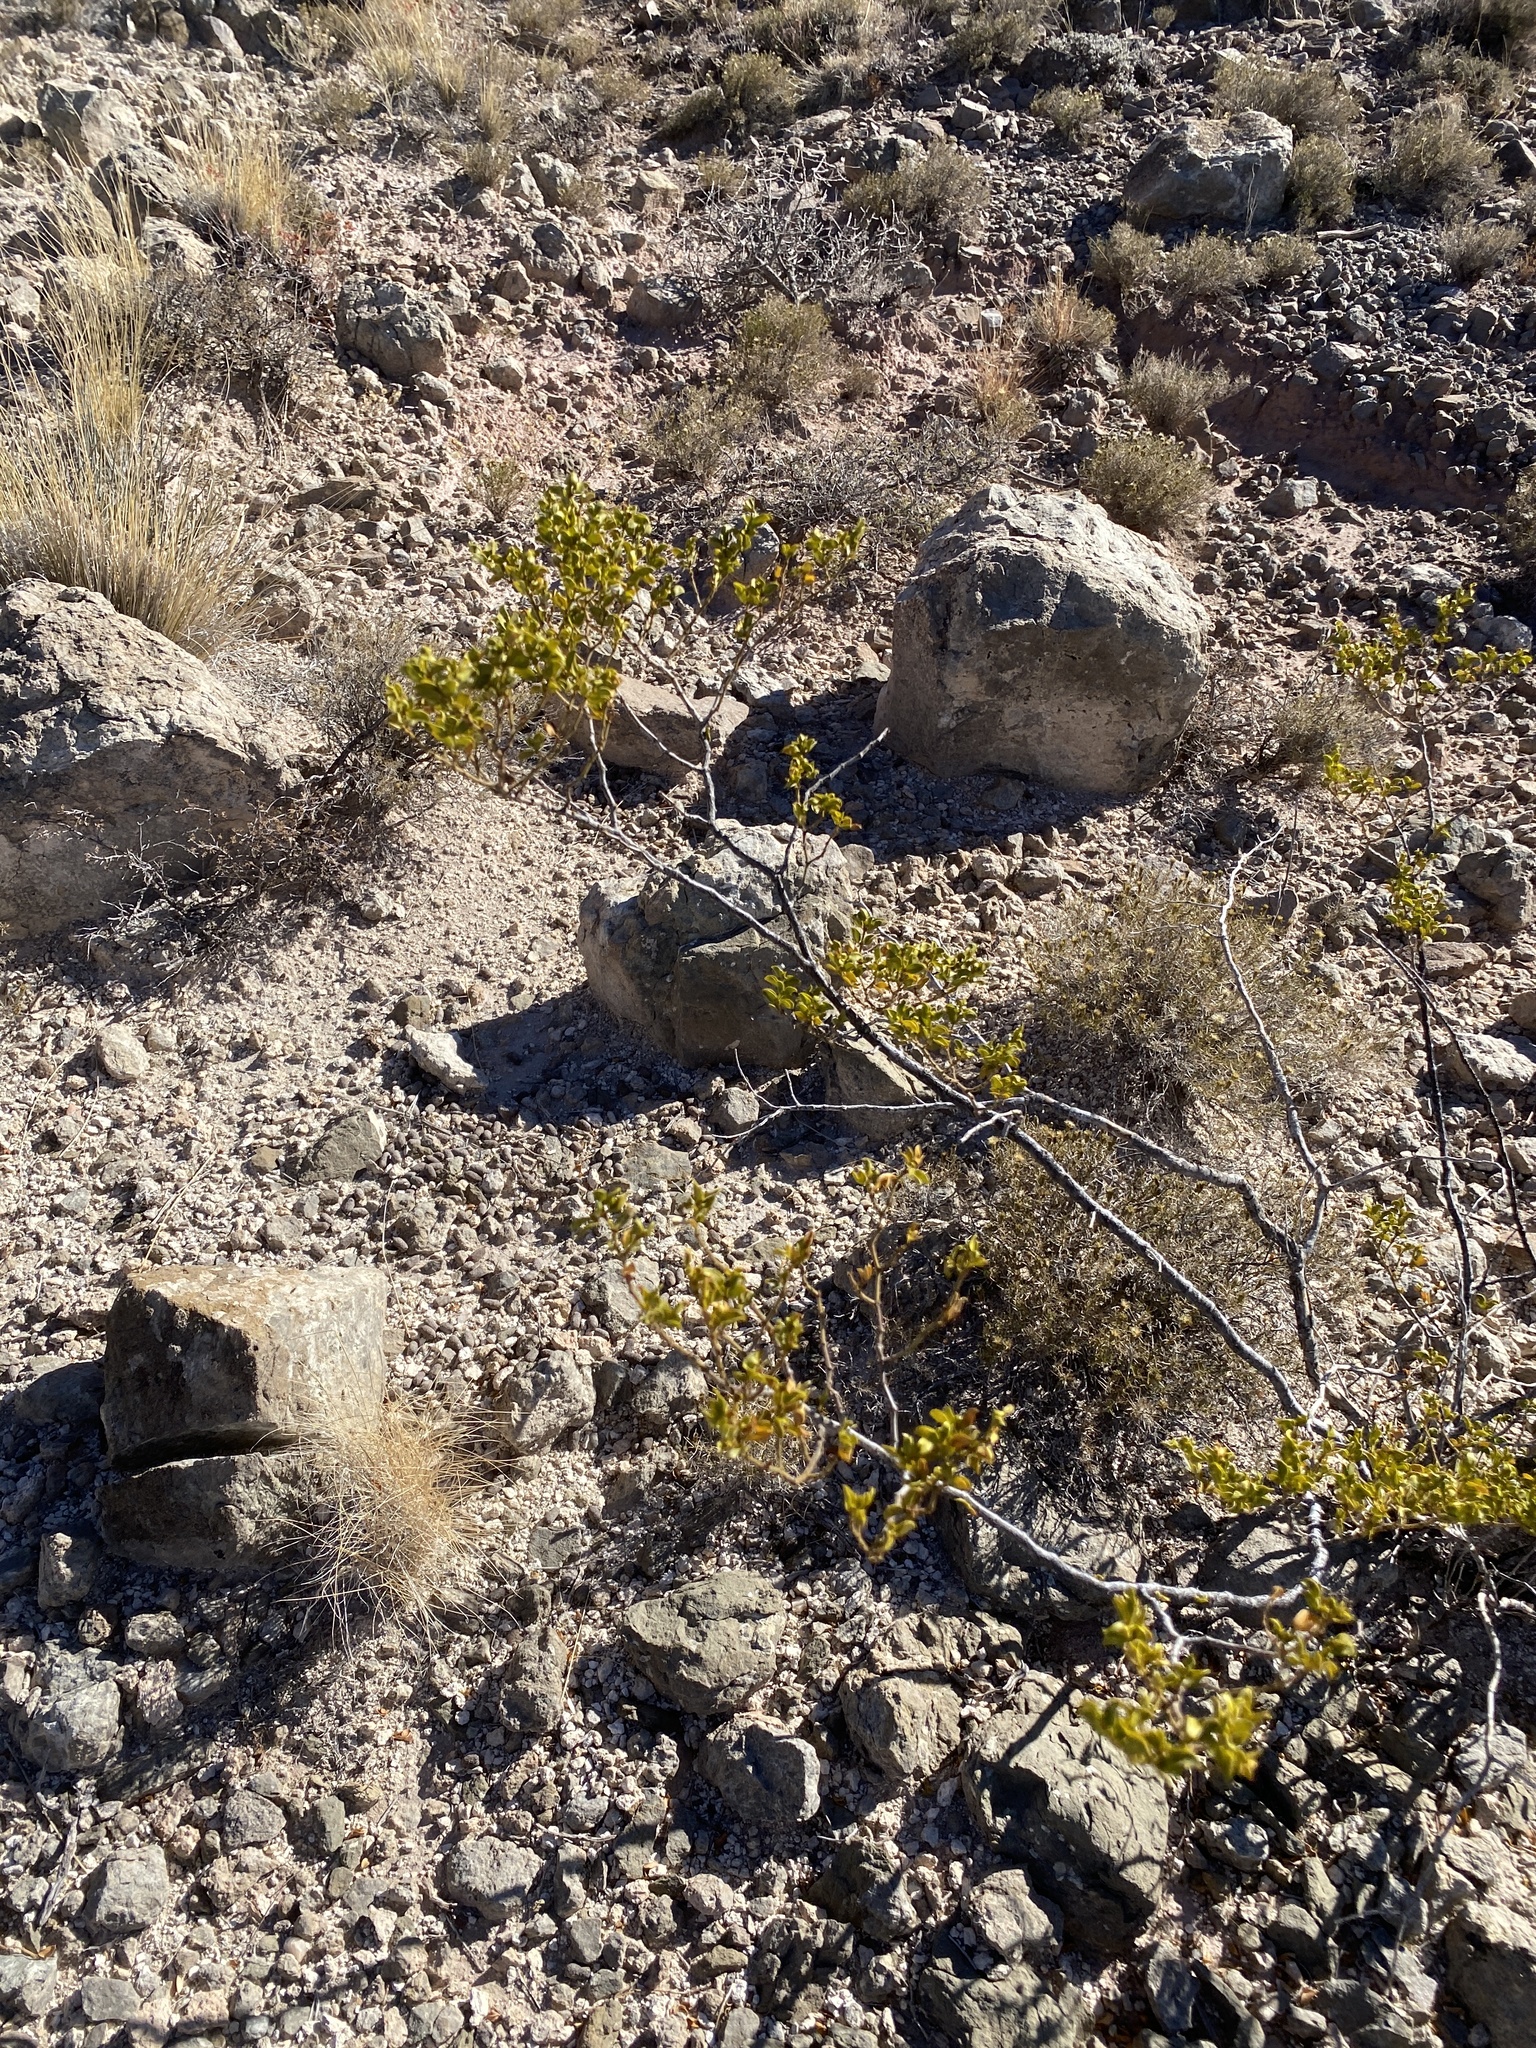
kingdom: Plantae
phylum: Tracheophyta
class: Magnoliopsida
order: Zygophyllales
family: Zygophyllaceae
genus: Larrea
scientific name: Larrea tridentata
